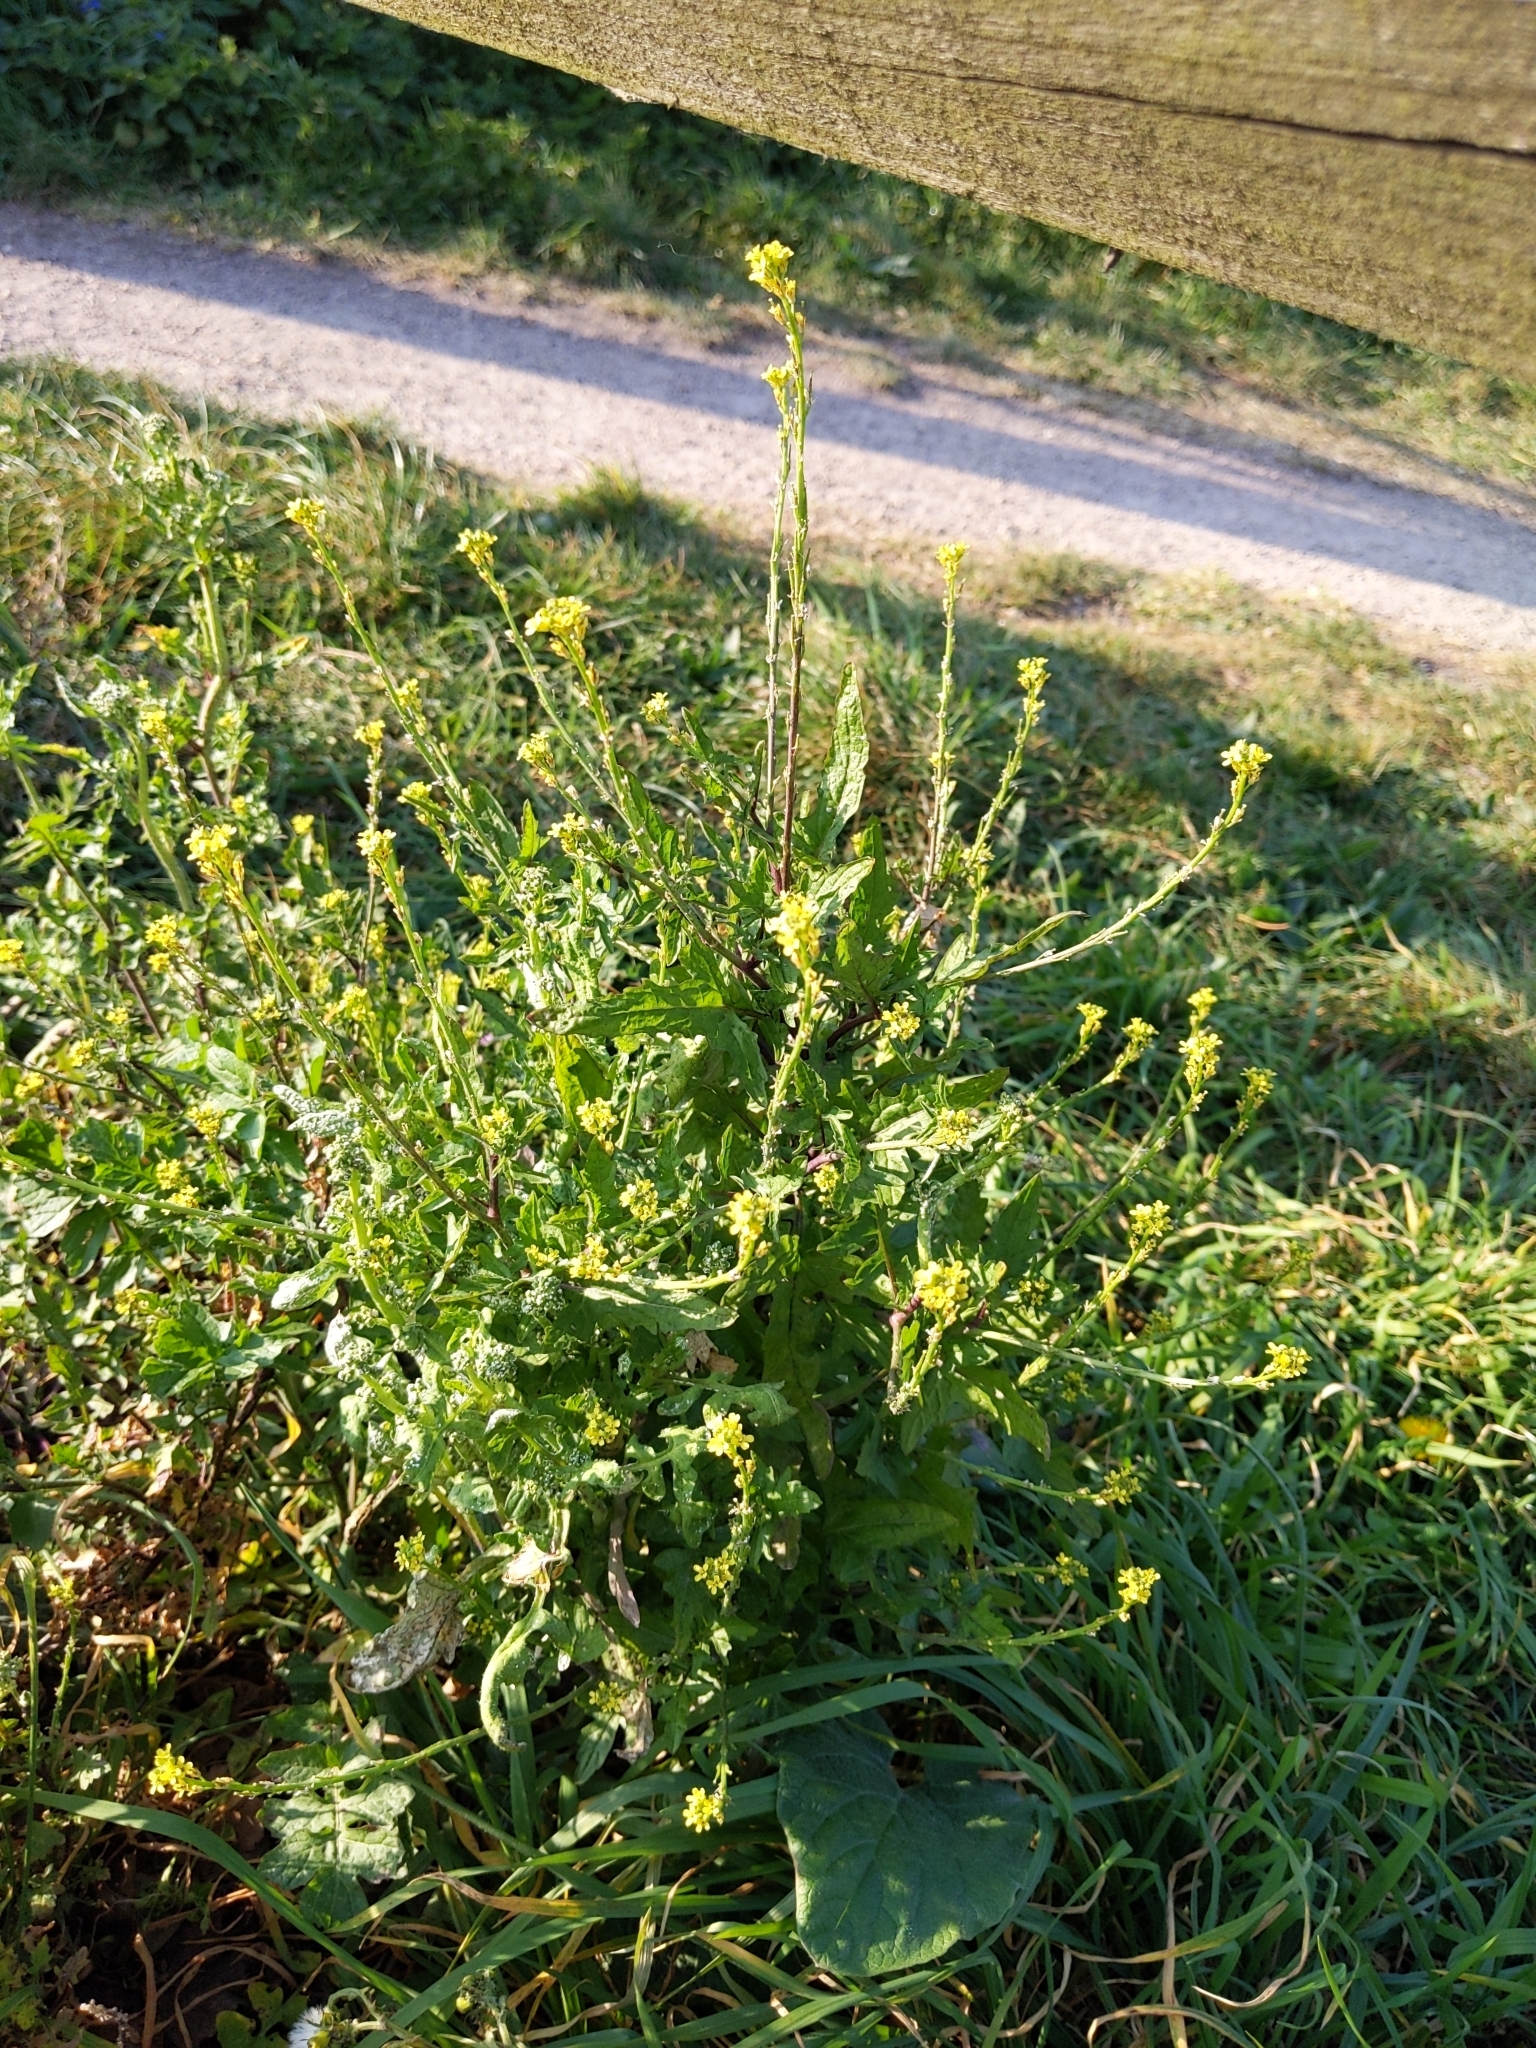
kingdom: Plantae
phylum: Tracheophyta
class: Magnoliopsida
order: Brassicales
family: Brassicaceae
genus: Sisymbrium
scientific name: Sisymbrium officinale
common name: Hedge mustard
